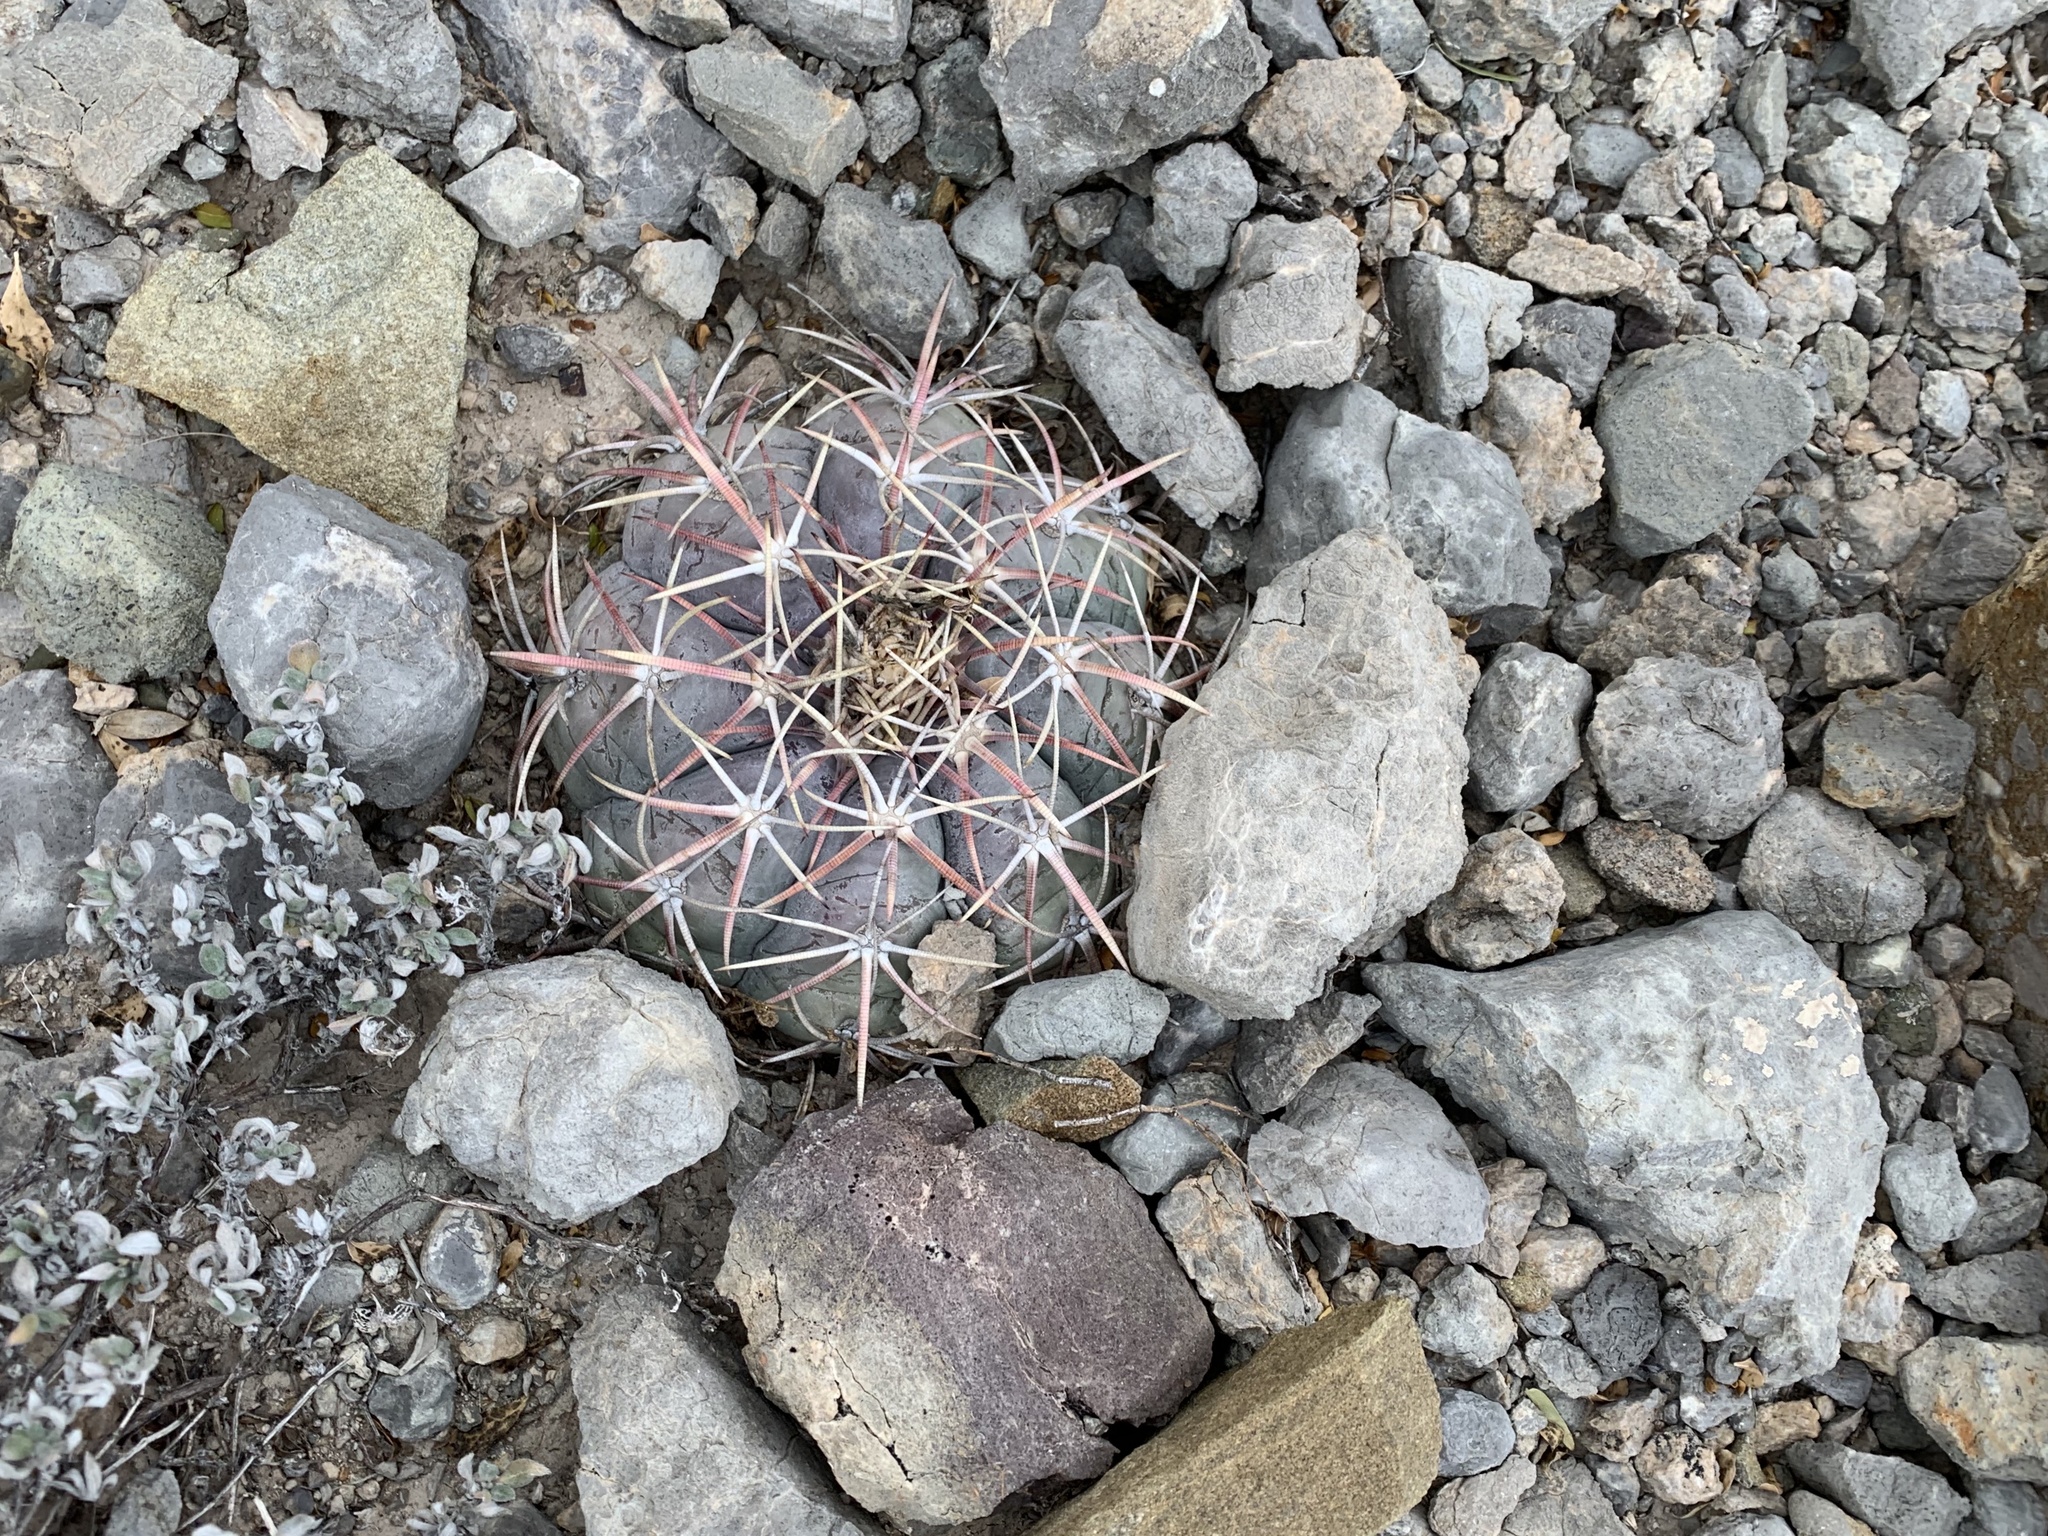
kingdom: Plantae
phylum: Tracheophyta
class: Magnoliopsida
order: Caryophyllales
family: Cactaceae
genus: Echinocactus
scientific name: Echinocactus horizonthalonius
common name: Devilshead
